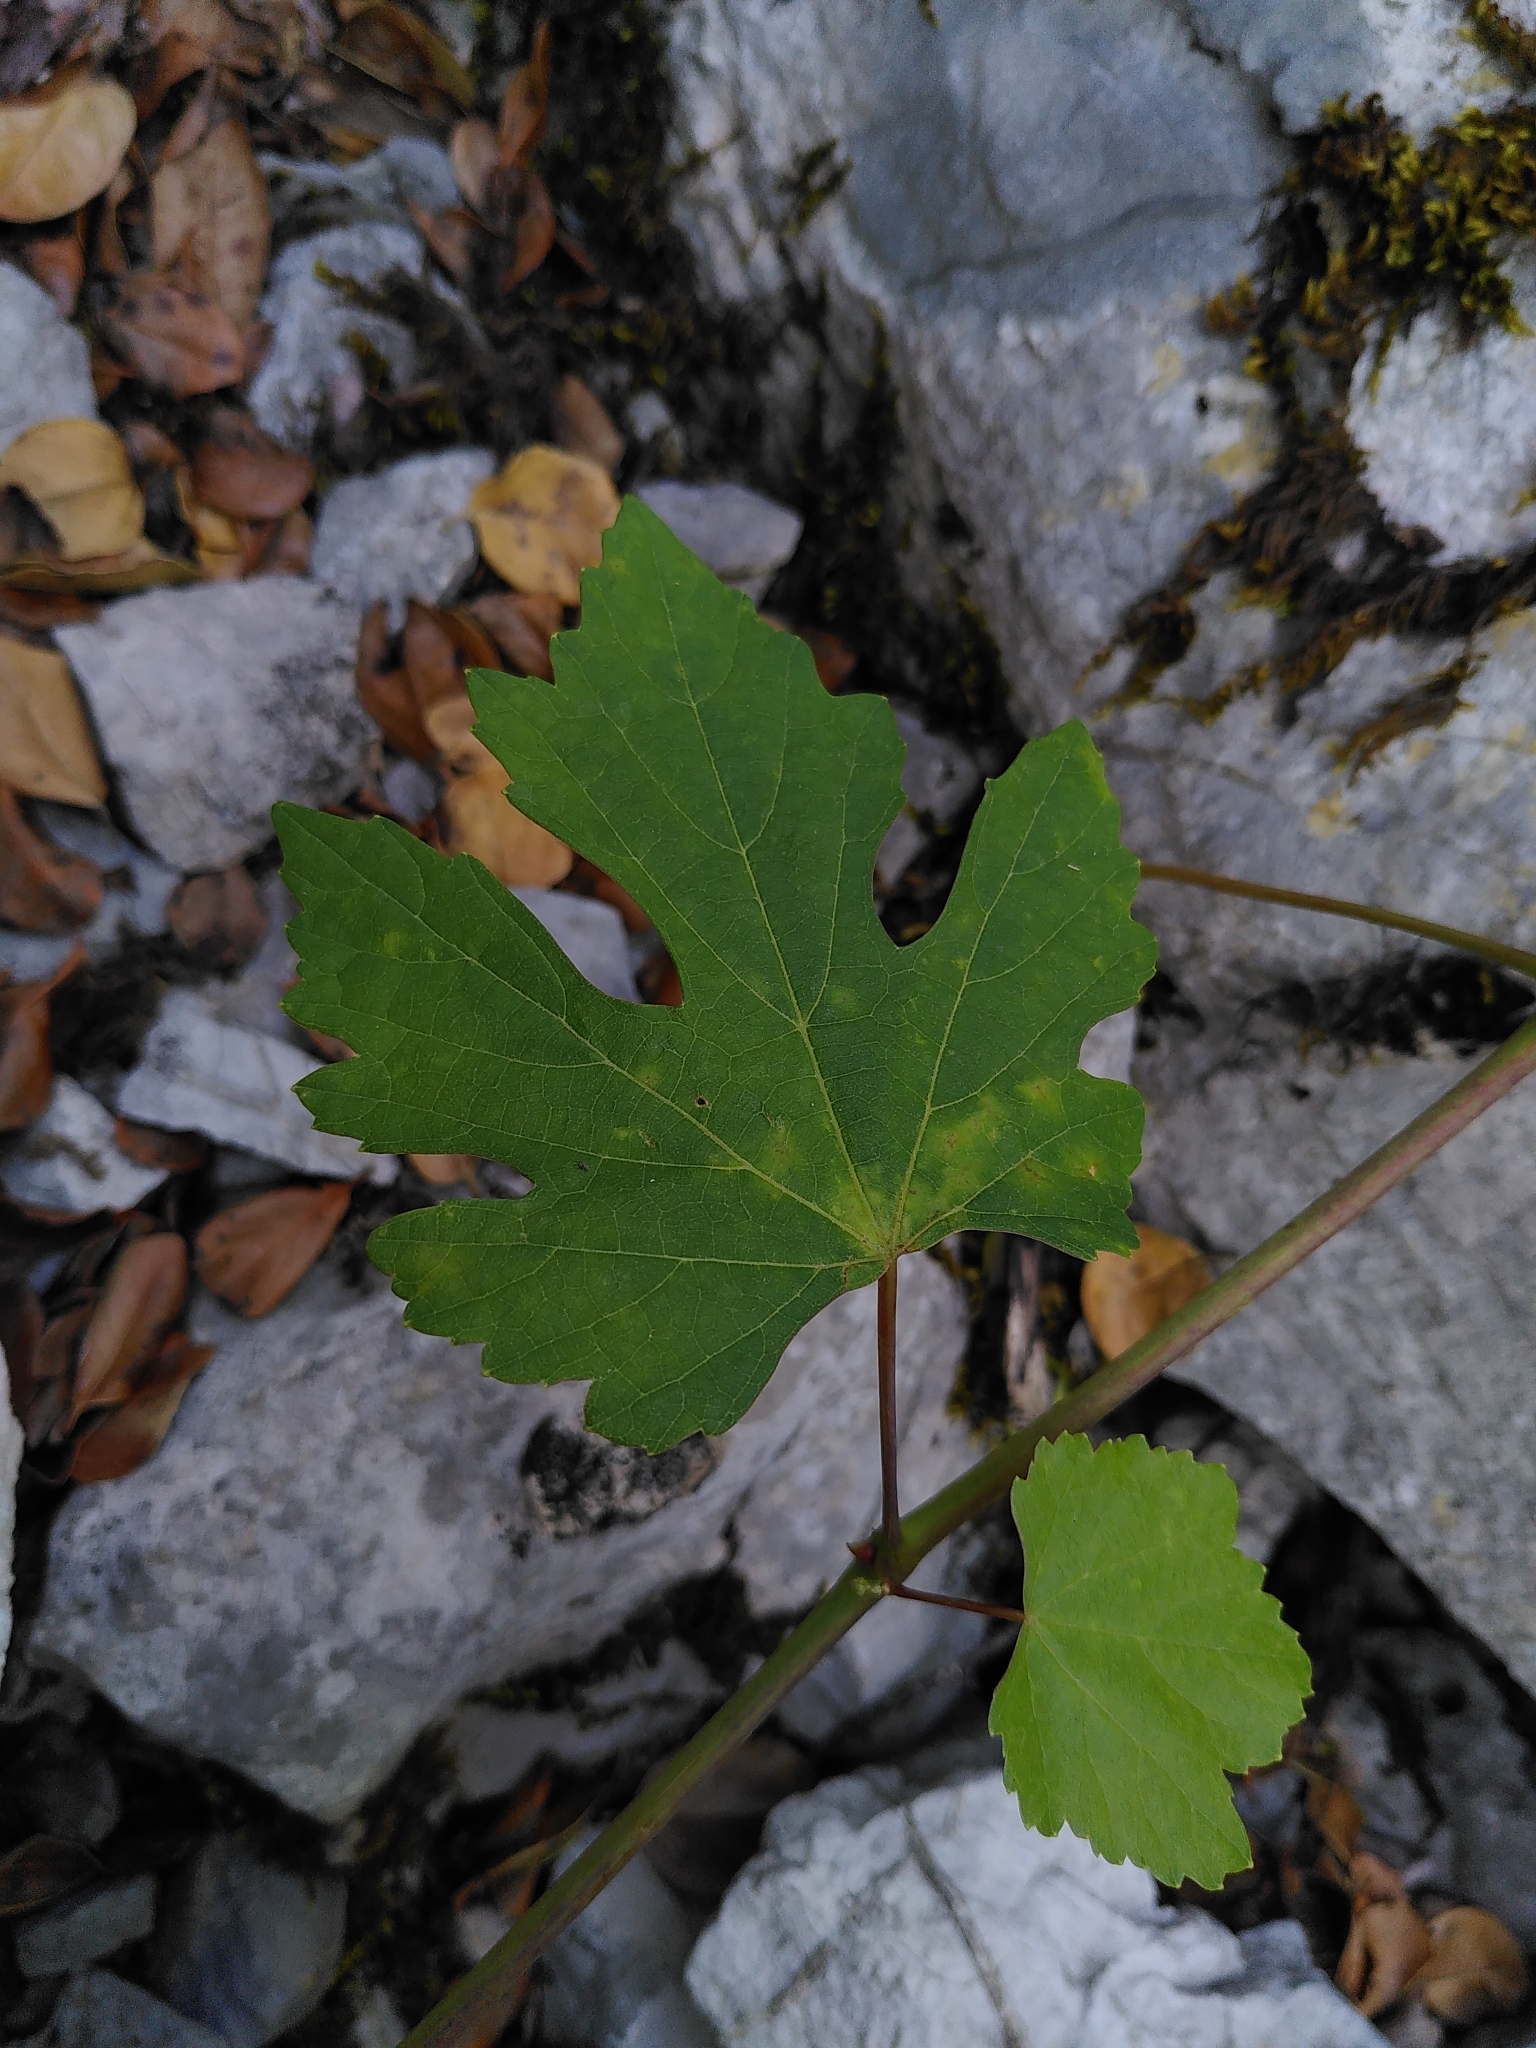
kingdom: Plantae
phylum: Tracheophyta
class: Magnoliopsida
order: Vitales
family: Vitaceae
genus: Vitis
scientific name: Vitis vinifera
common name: Grape-vine
